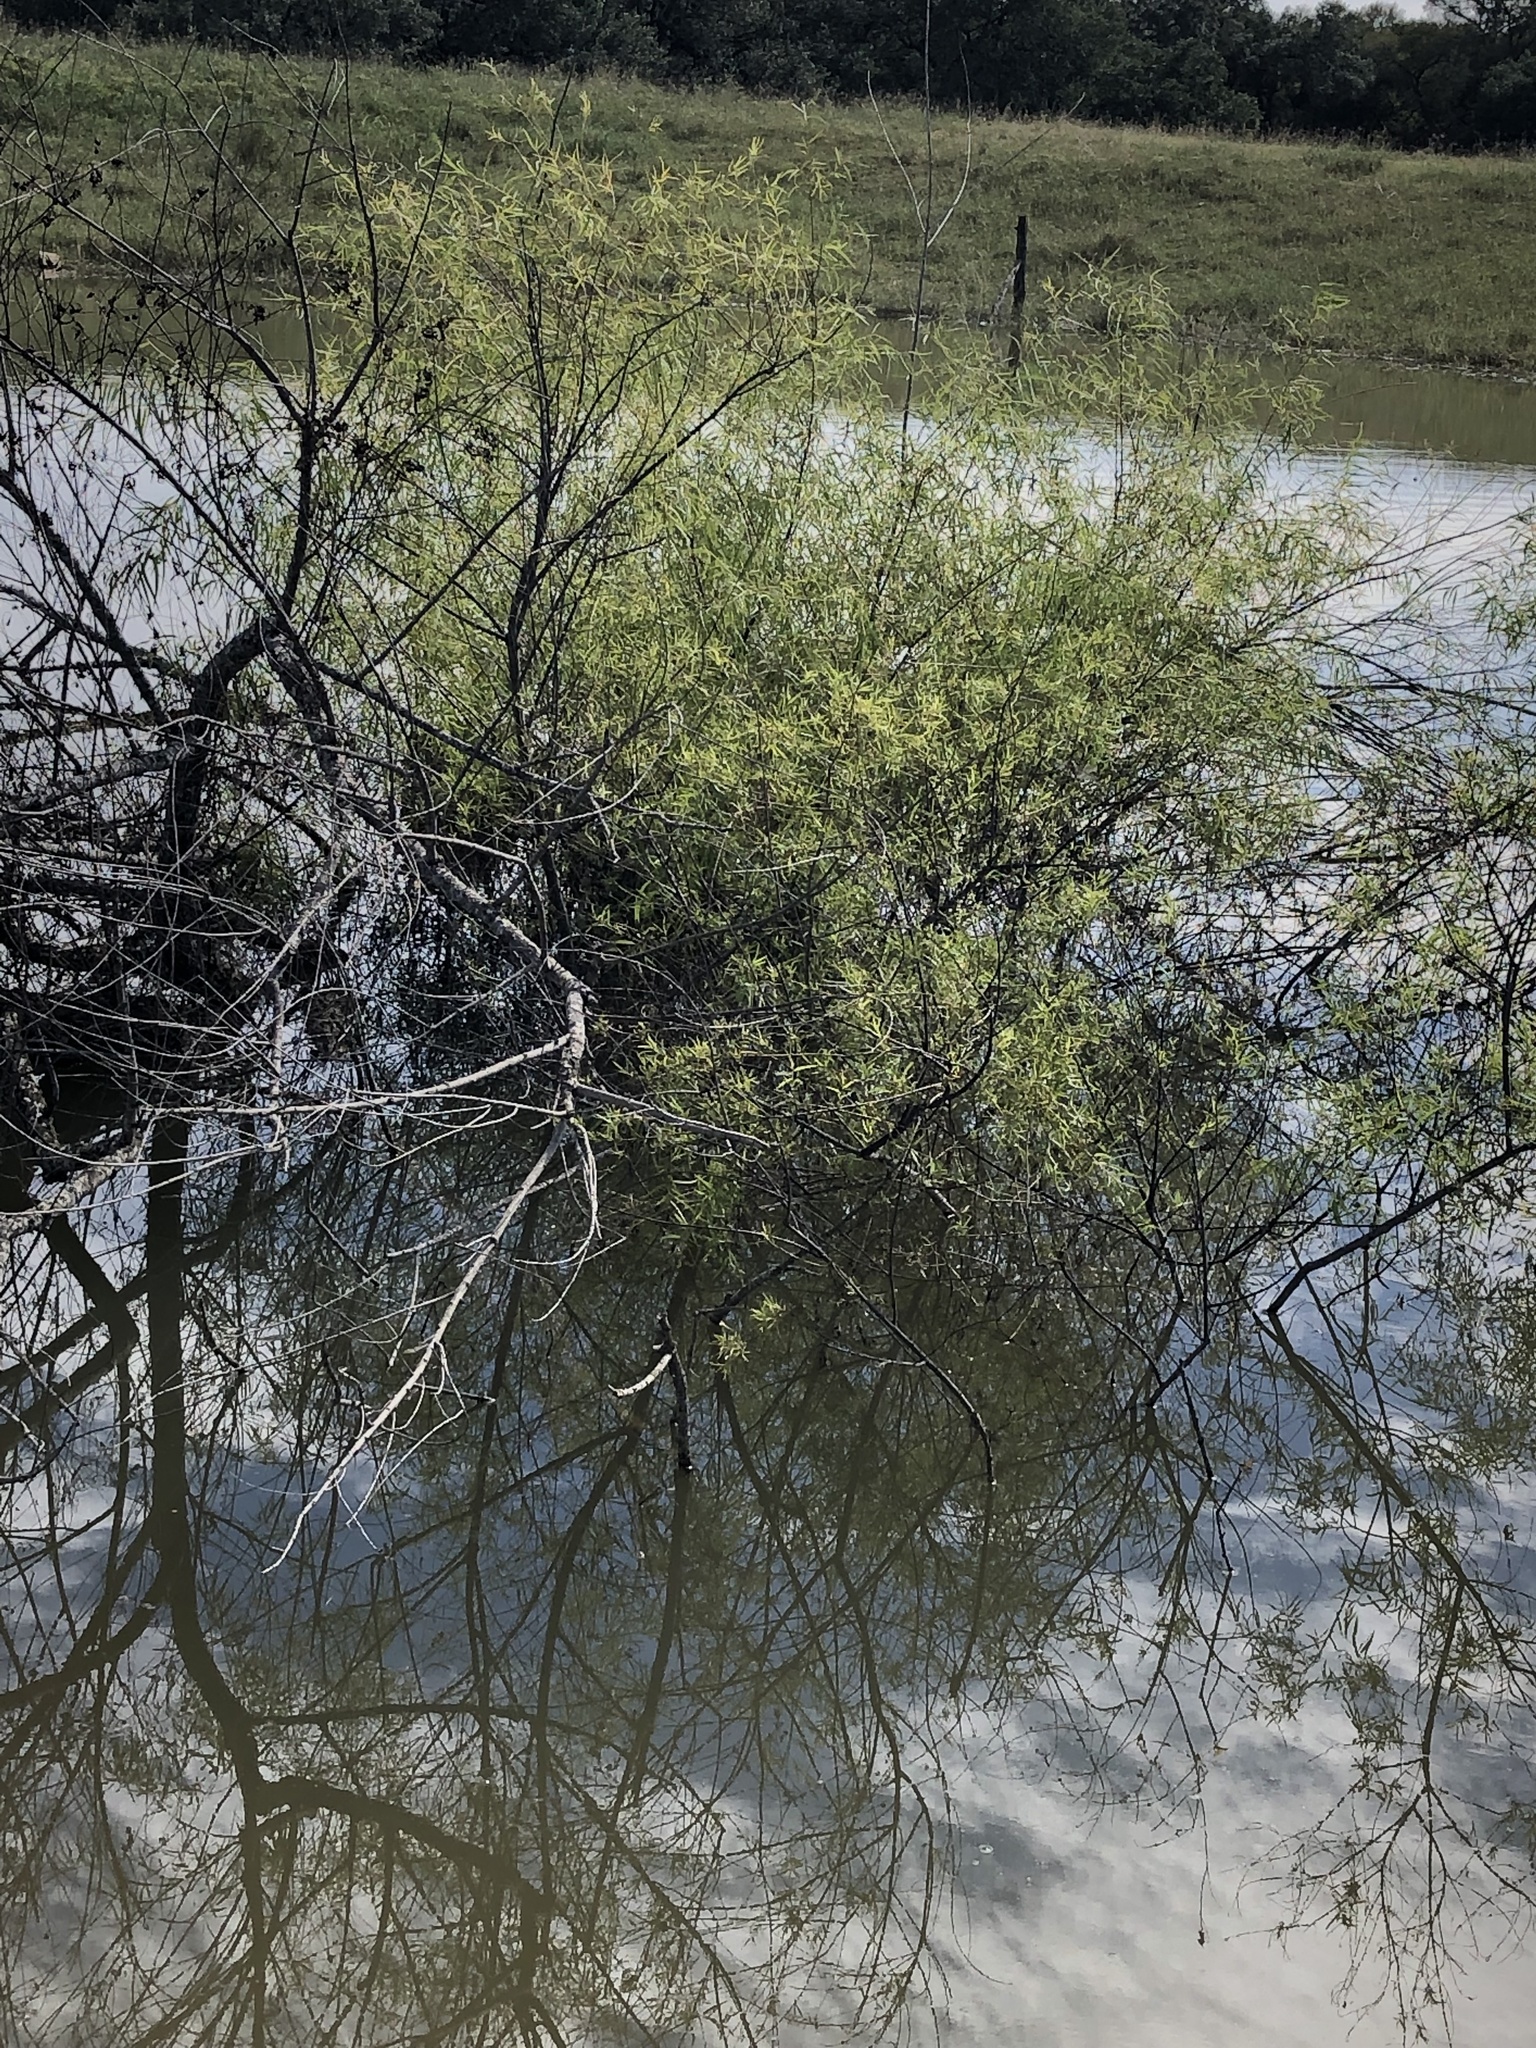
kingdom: Plantae
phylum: Tracheophyta
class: Magnoliopsida
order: Malpighiales
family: Salicaceae
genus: Salix
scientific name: Salix nigra
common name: Black willow
